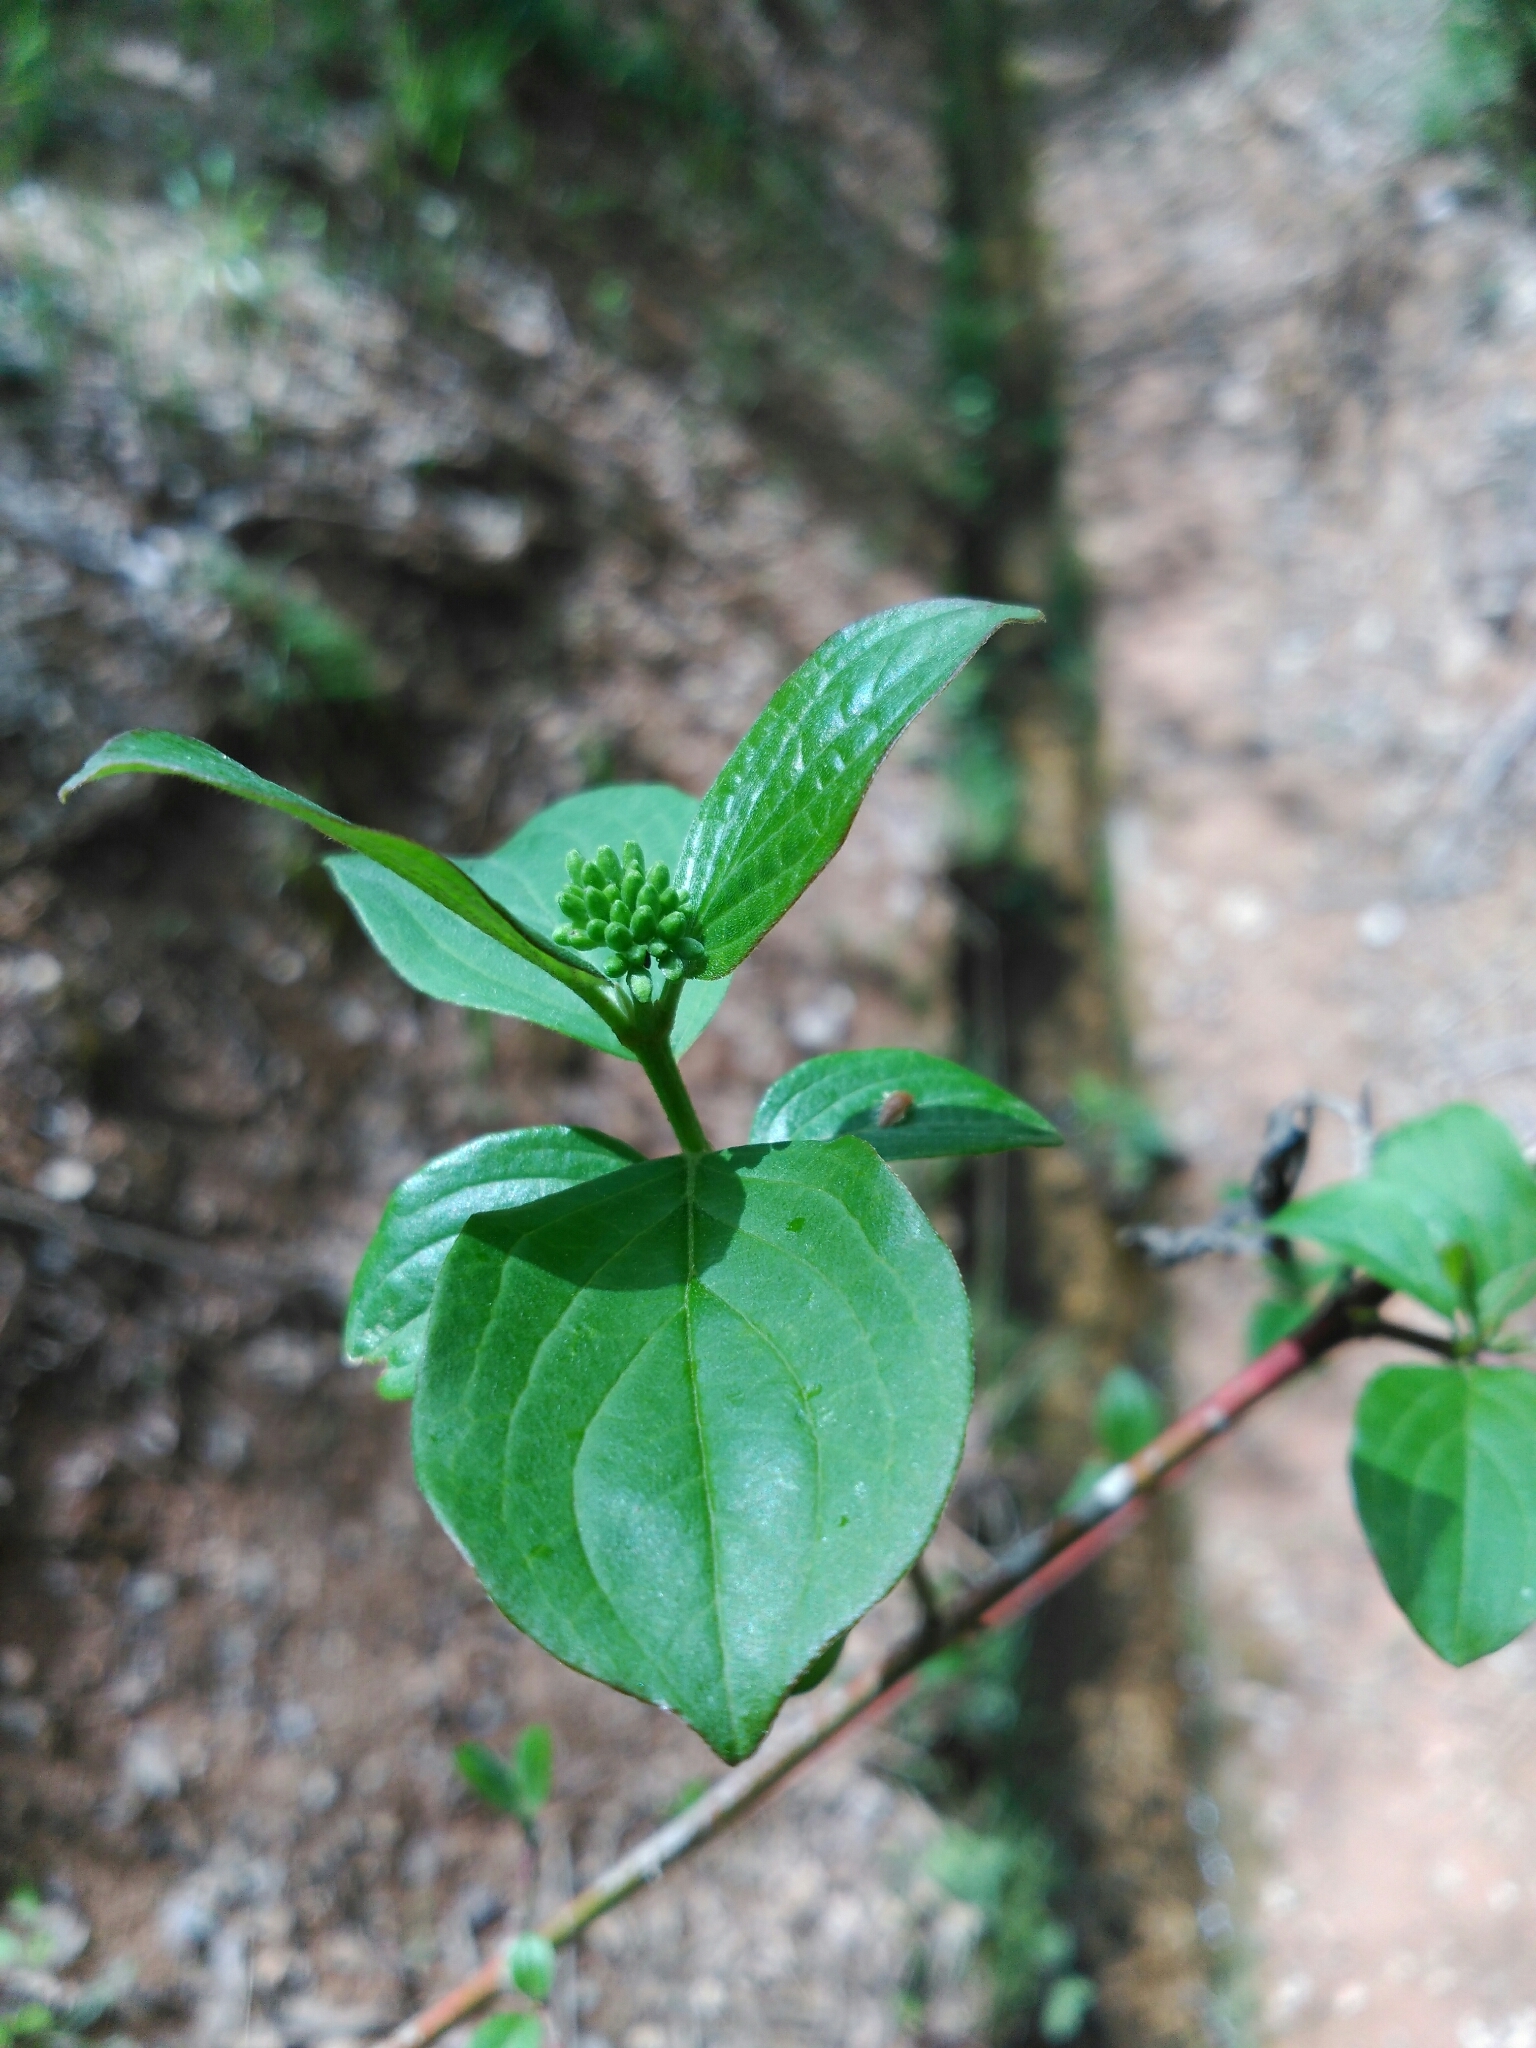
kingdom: Plantae
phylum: Tracheophyta
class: Magnoliopsida
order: Cornales
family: Cornaceae
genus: Cornus
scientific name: Cornus sanguinea
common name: Dogwood
